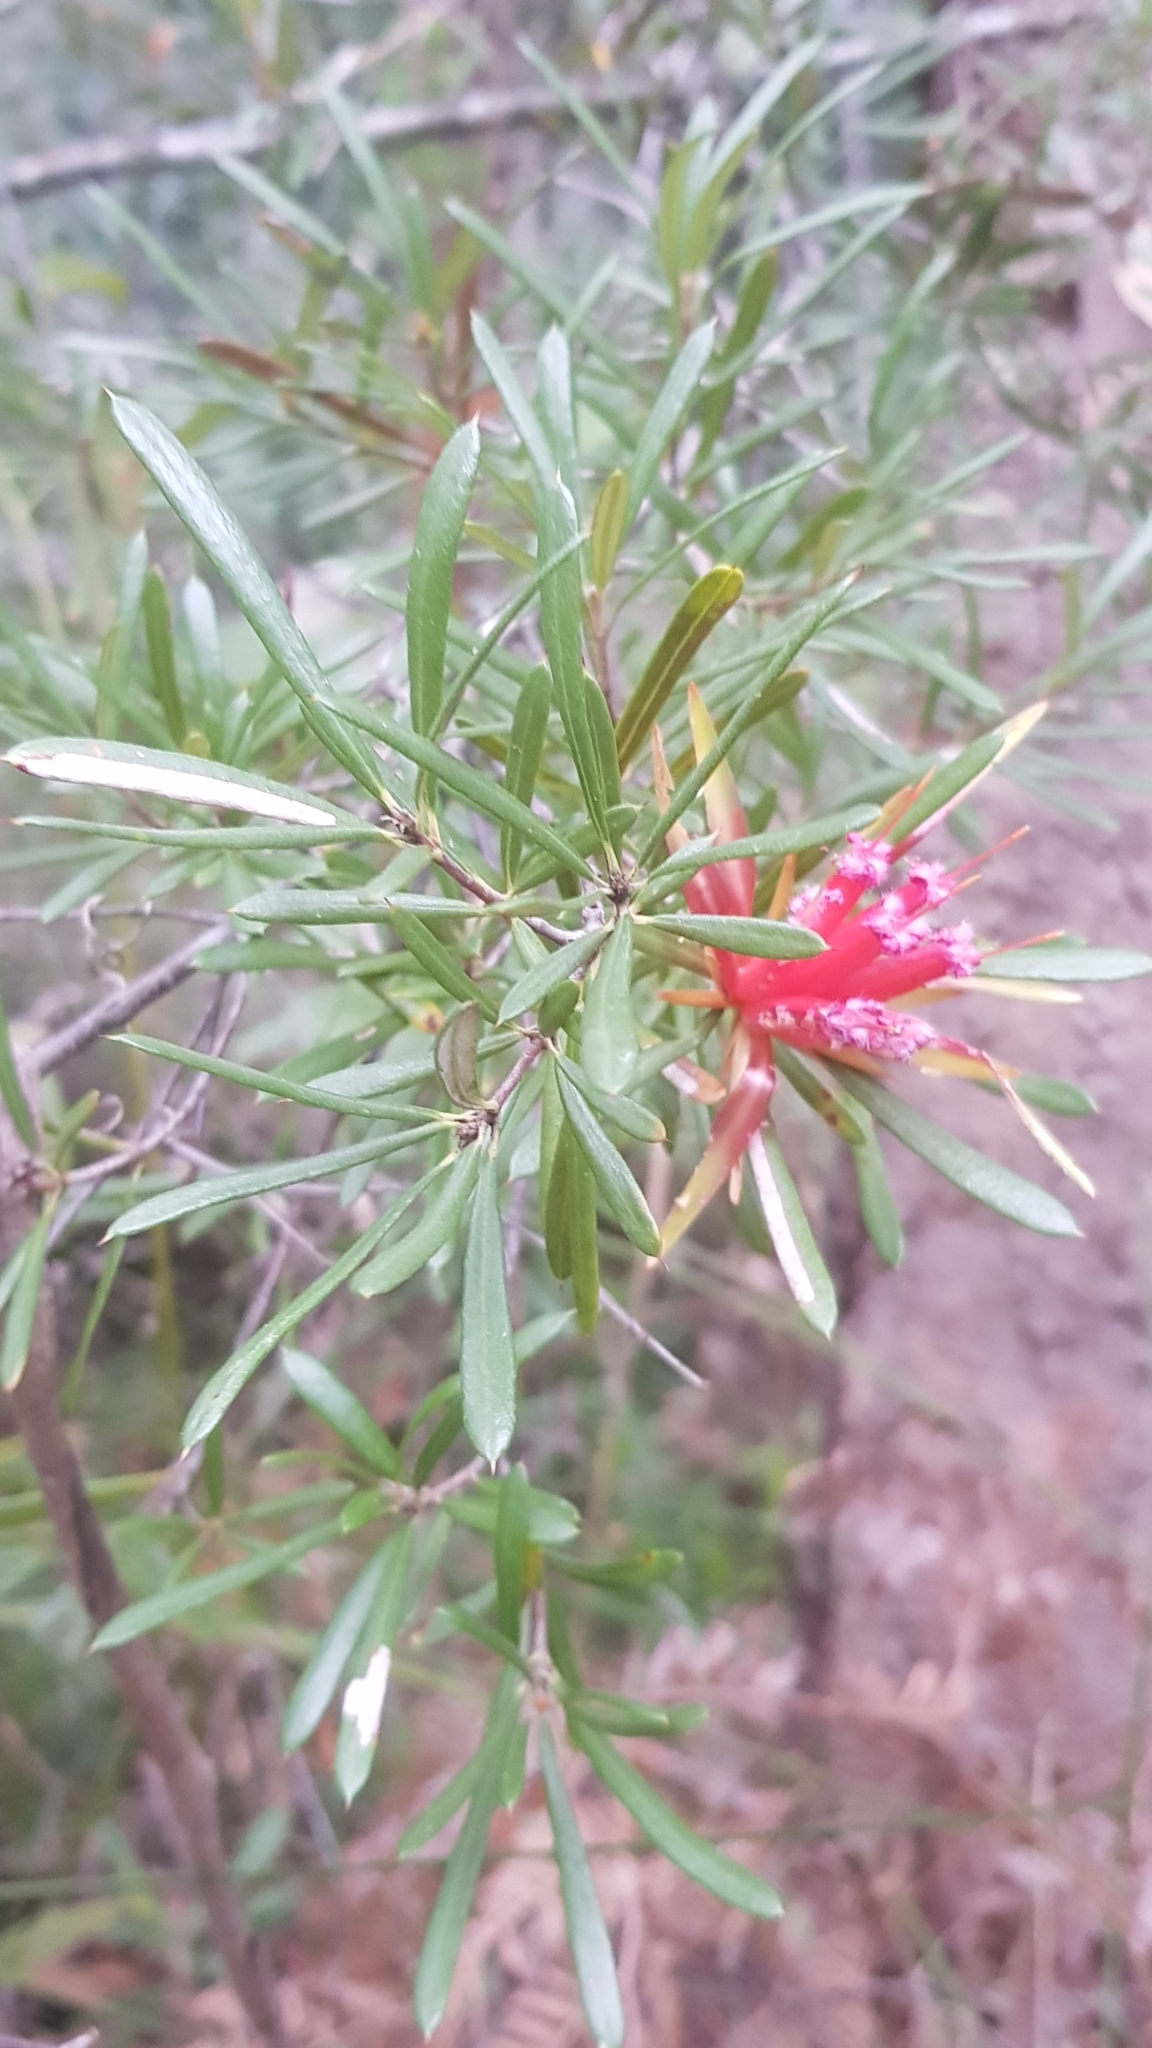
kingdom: Plantae
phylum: Tracheophyta
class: Magnoliopsida
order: Proteales
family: Proteaceae
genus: Lambertia
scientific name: Lambertia formosa
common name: Mountain-devil
